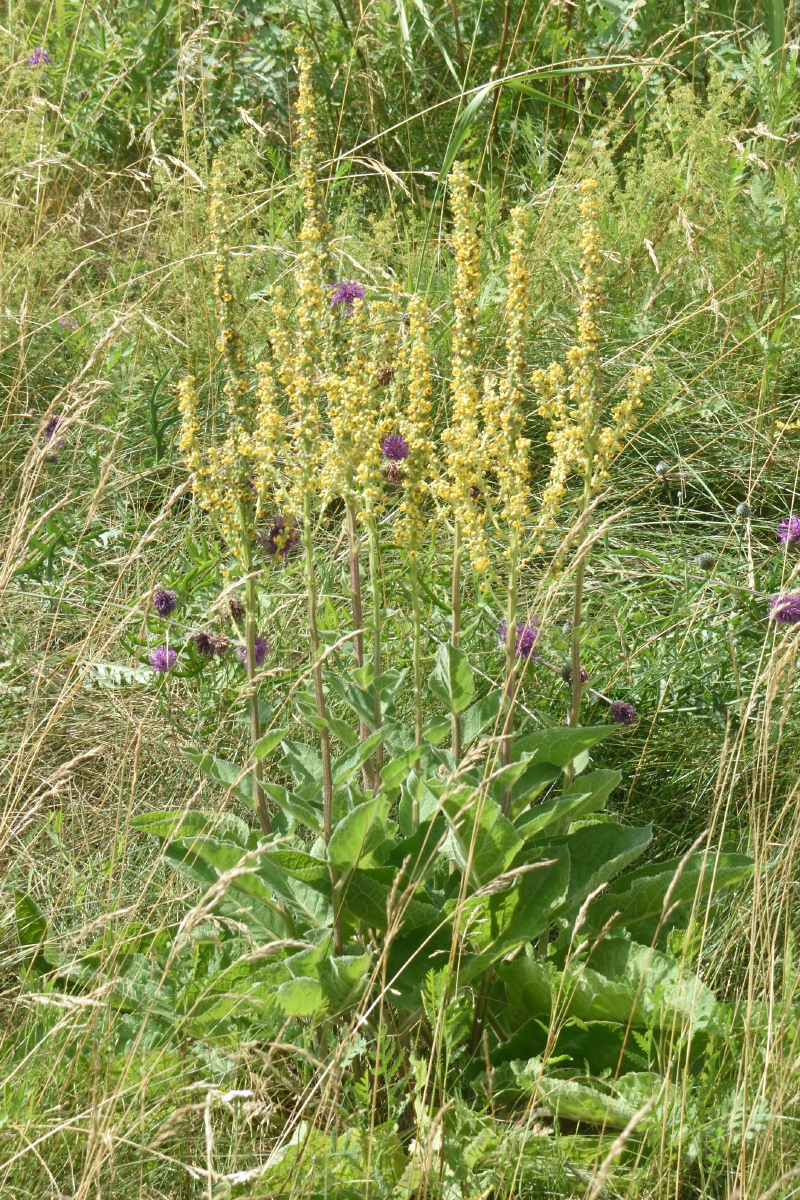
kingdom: Plantae
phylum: Tracheophyta
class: Magnoliopsida
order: Lamiales
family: Scrophulariaceae
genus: Verbascum
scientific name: Verbascum nigrum
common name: Dark mullein
